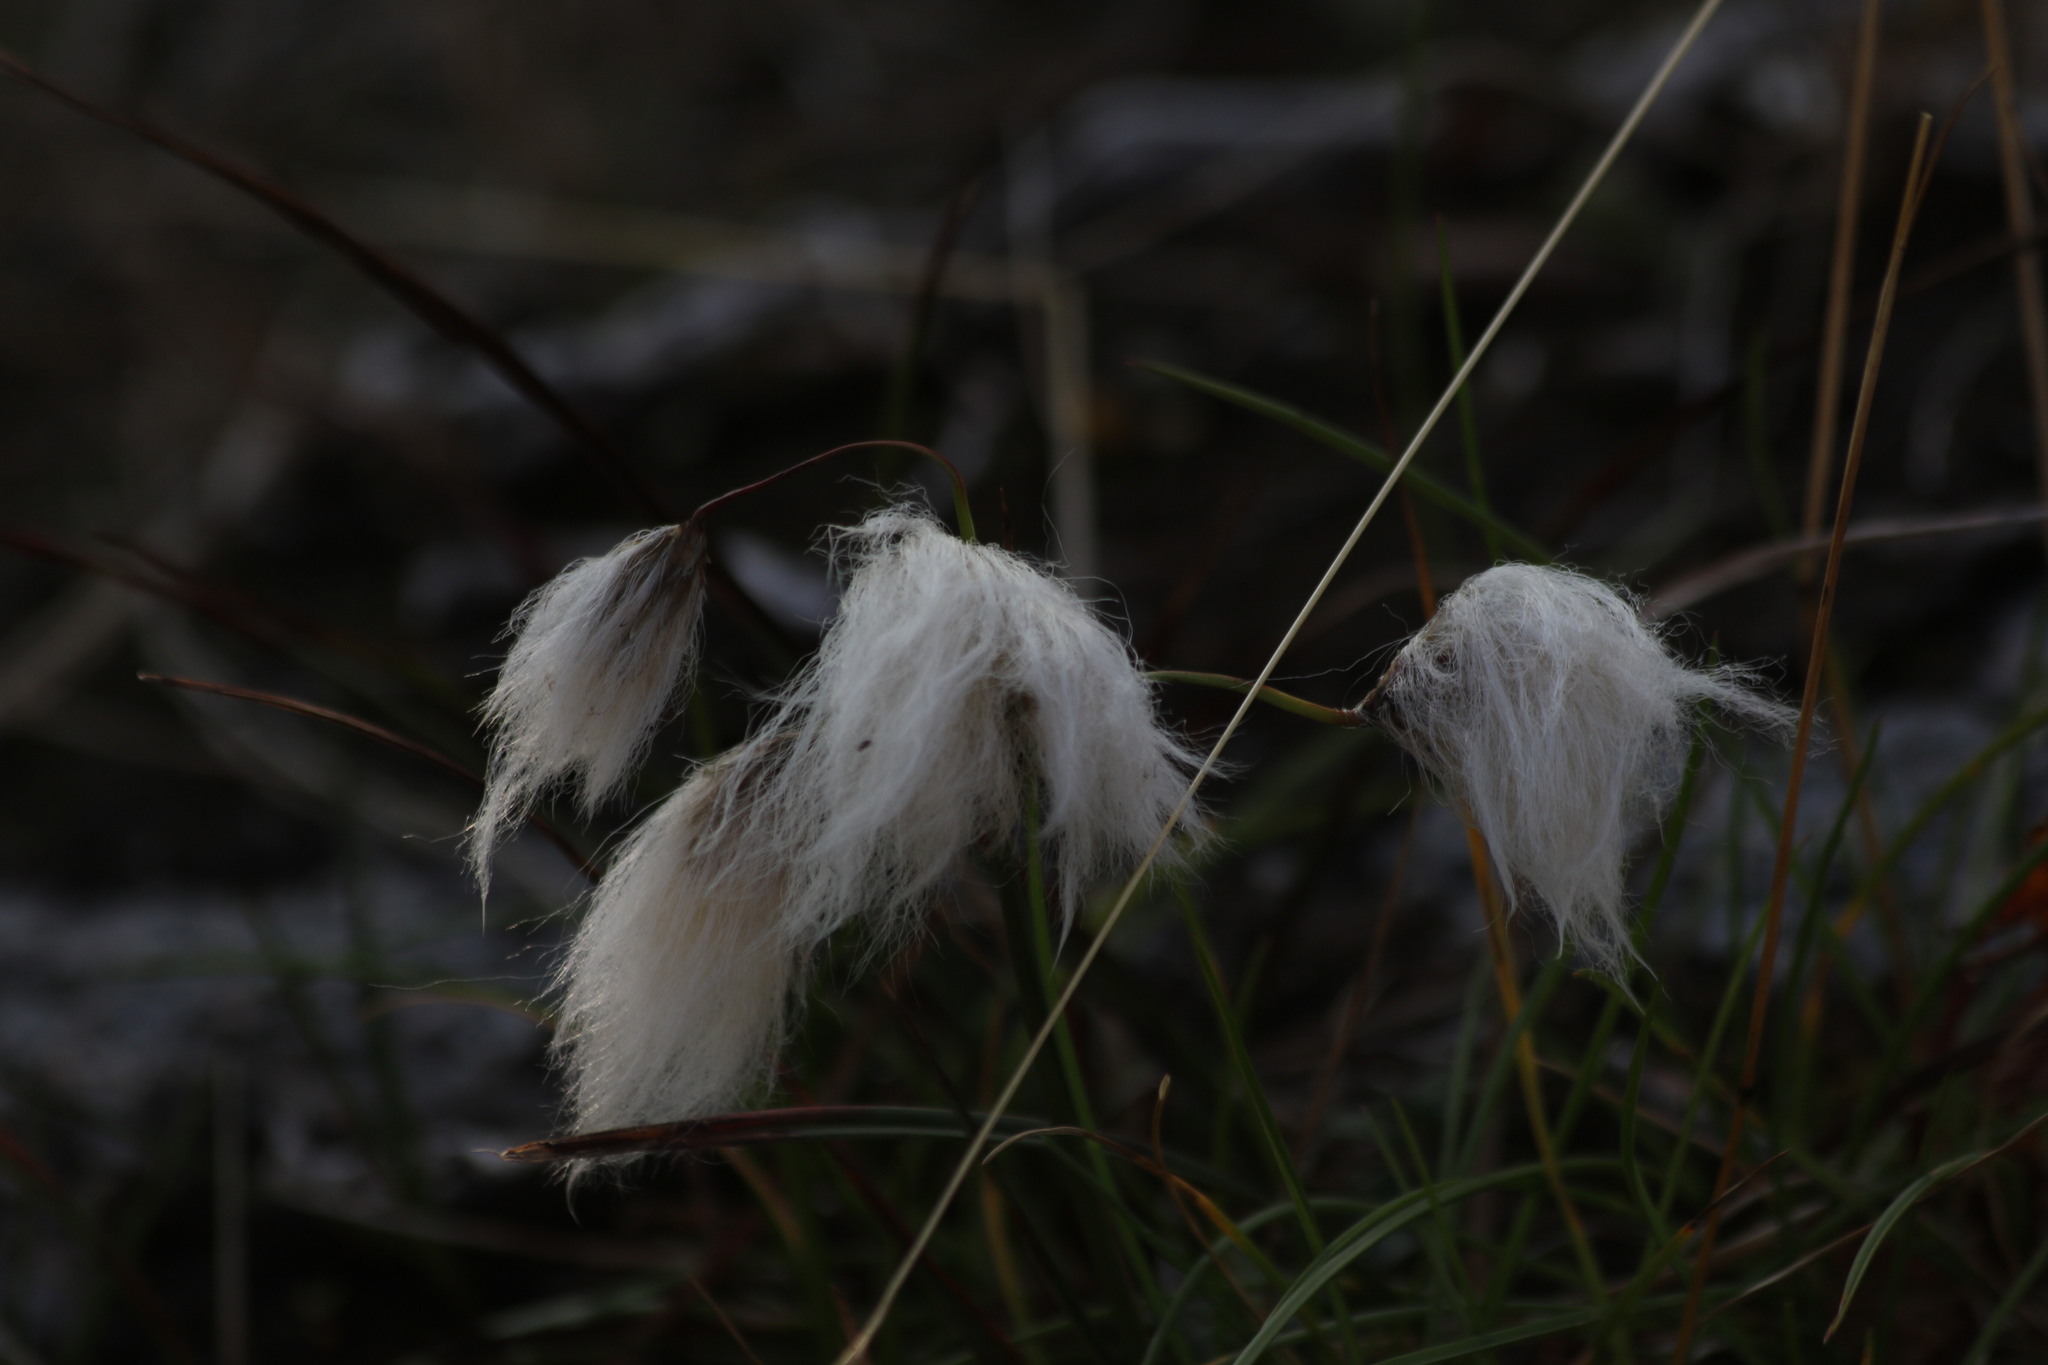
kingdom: Plantae
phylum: Tracheophyta
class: Liliopsida
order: Poales
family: Cyperaceae
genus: Eriophorum
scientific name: Eriophorum angustifolium
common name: Common cottongrass
